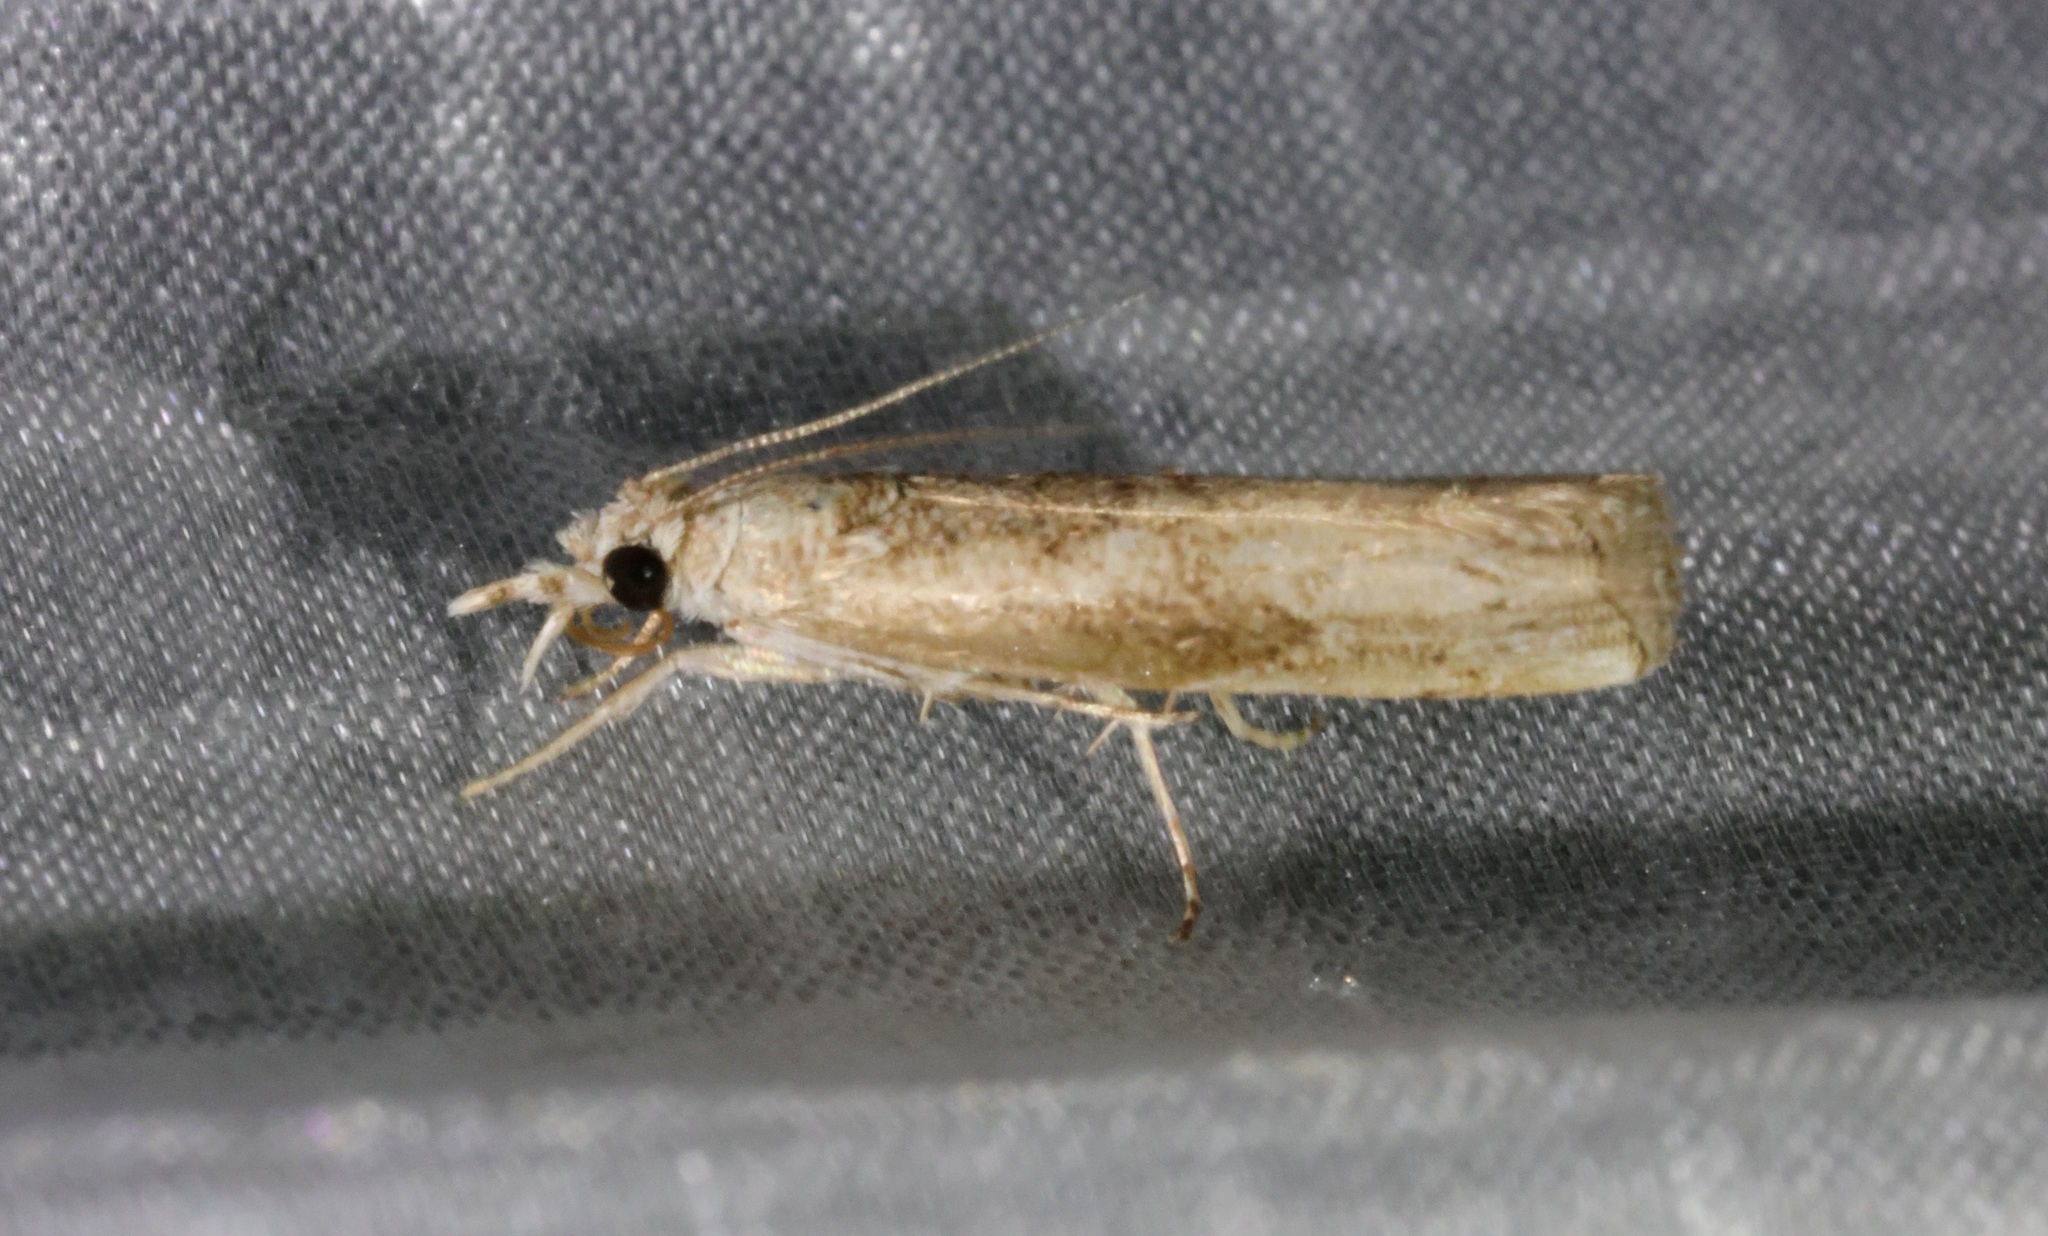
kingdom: Animalia
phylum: Arthropoda
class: Insecta
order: Lepidoptera
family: Crambidae
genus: Culladia
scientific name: Culladia hastiferalis
